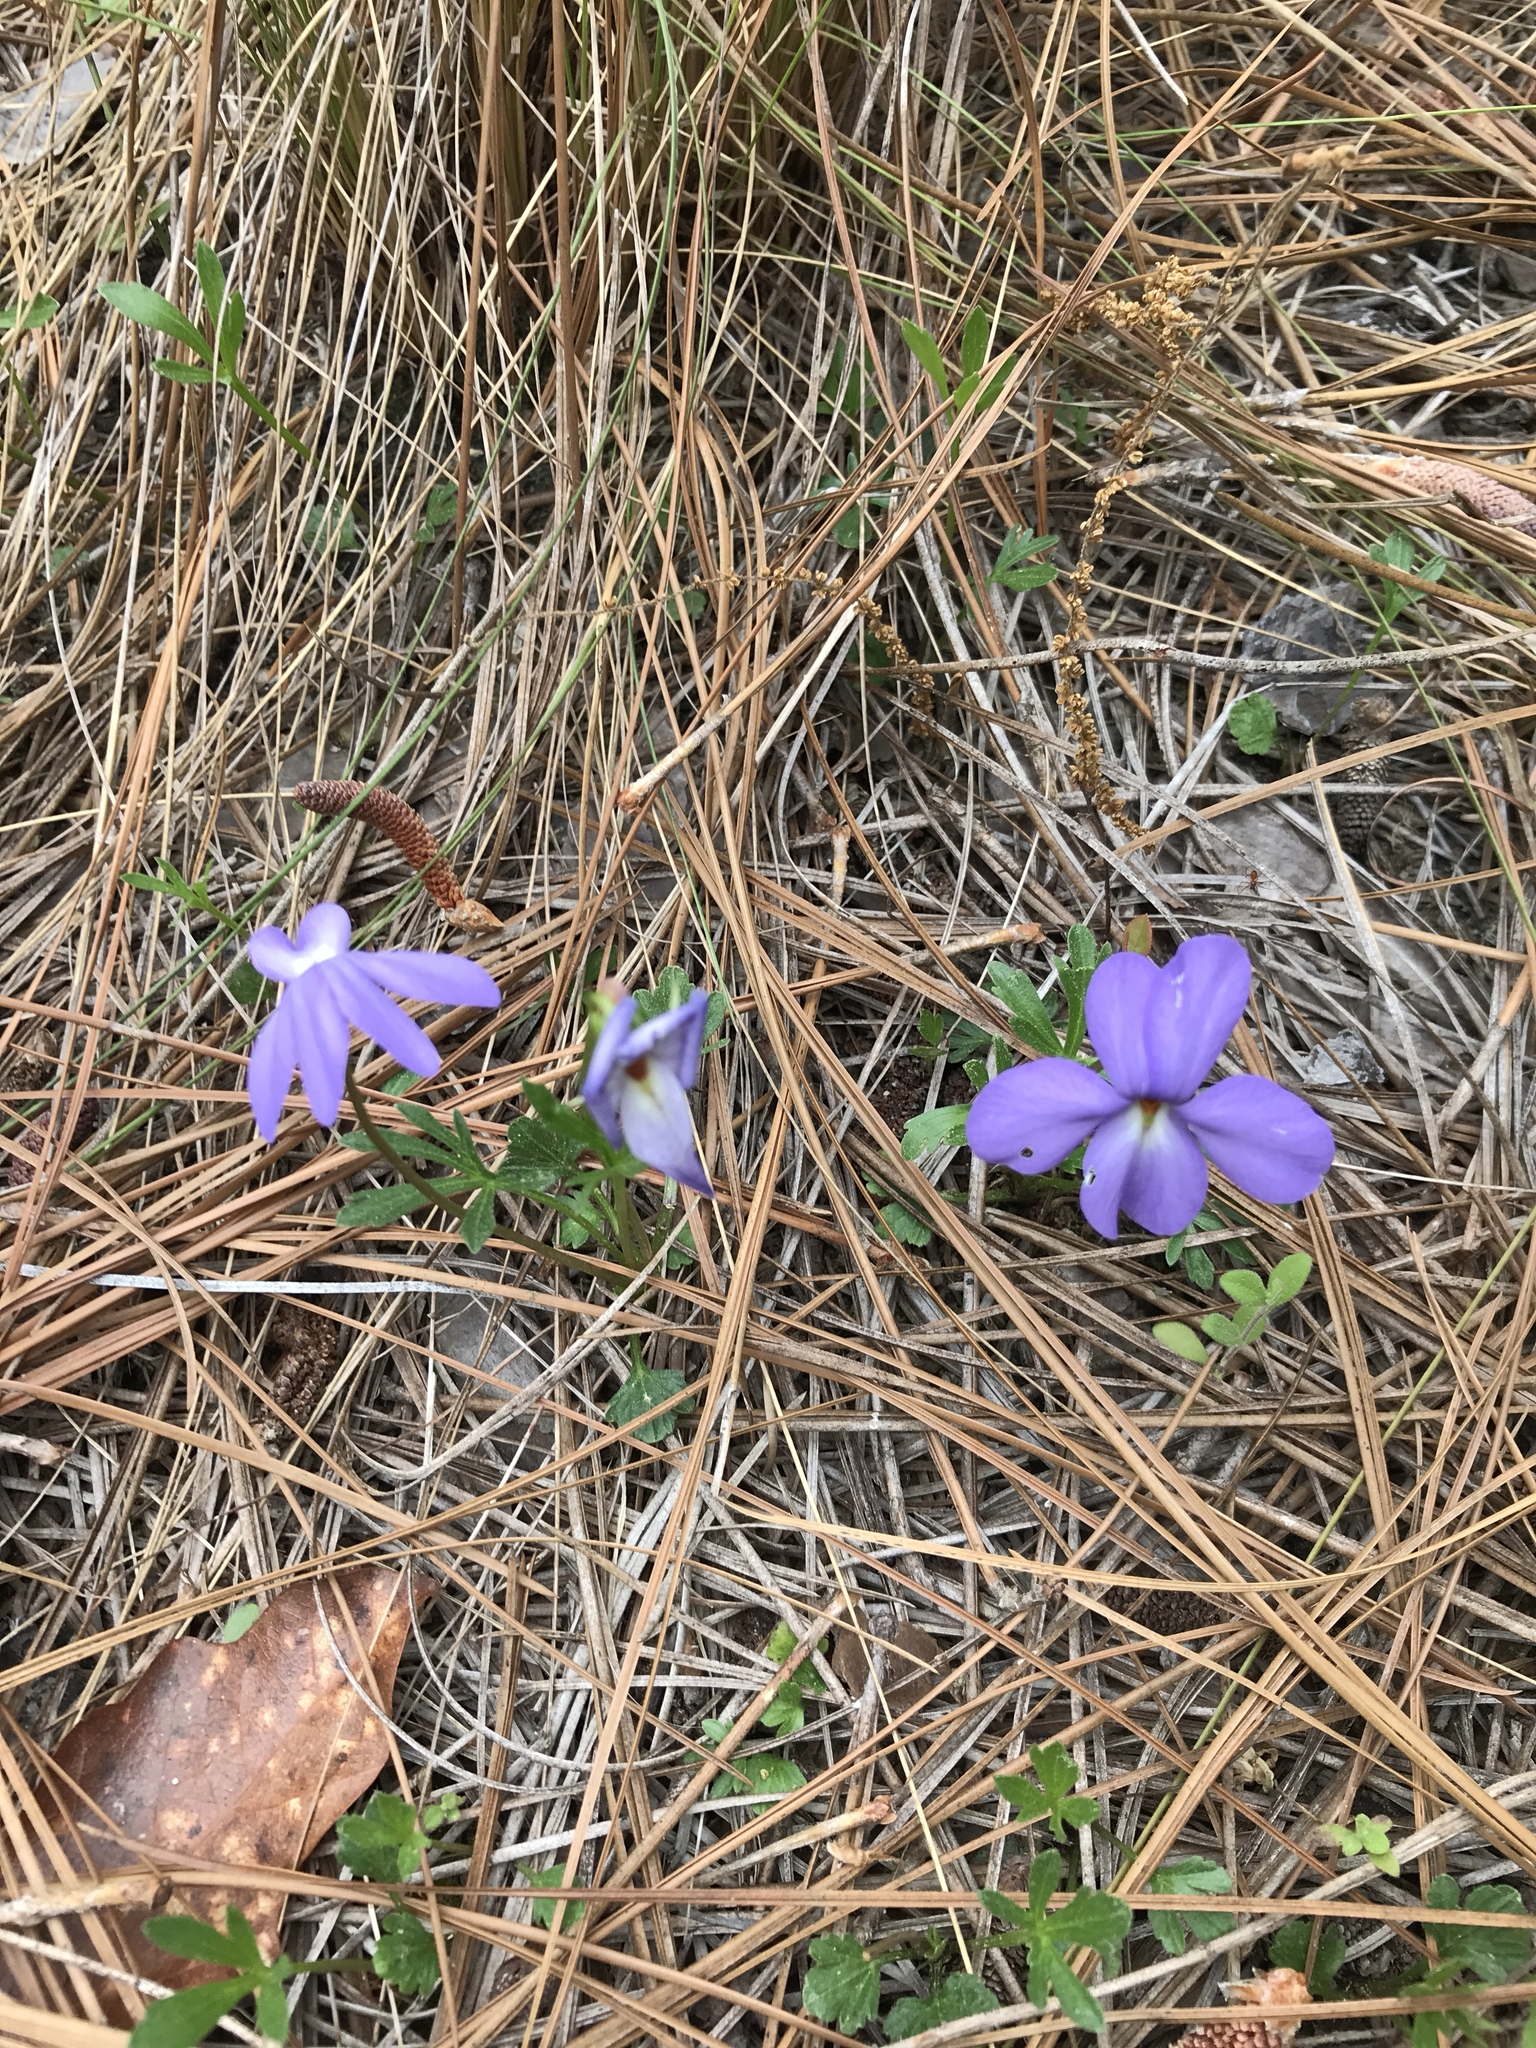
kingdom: Plantae
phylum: Tracheophyta
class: Magnoliopsida
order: Malpighiales
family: Violaceae
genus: Viola
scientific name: Viola pedata
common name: Pansy violet
